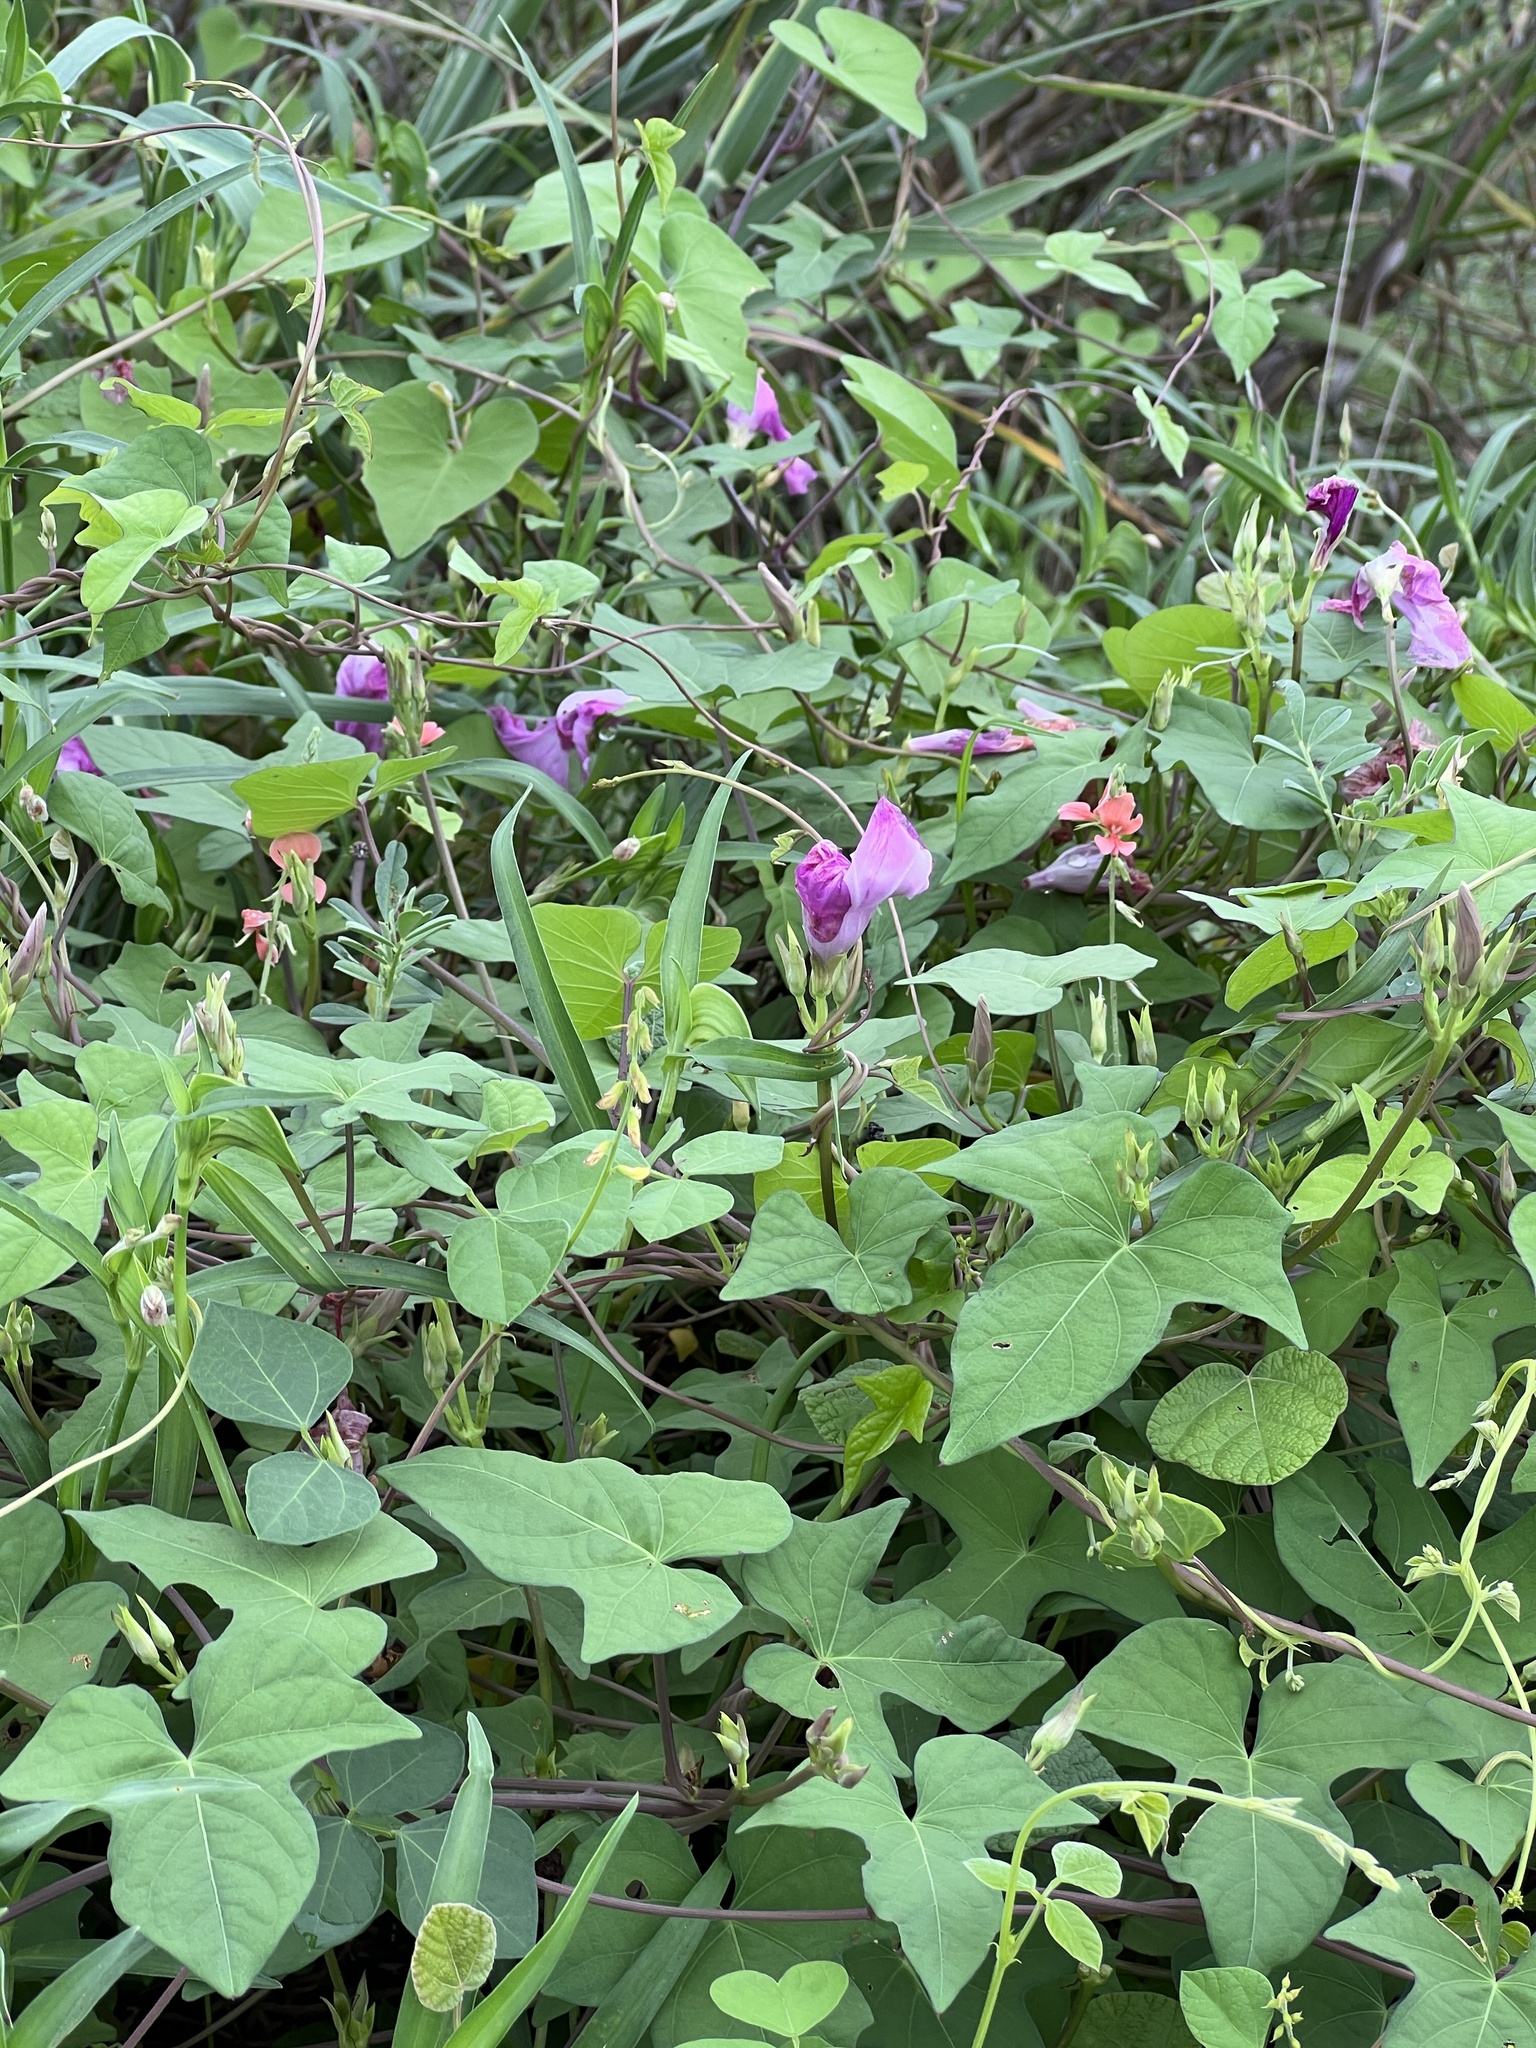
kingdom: Plantae
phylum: Tracheophyta
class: Magnoliopsida
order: Solanales
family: Convolvulaceae
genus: Ipomoea
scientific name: Ipomoea cordatotriloba
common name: Cotton morning glory
